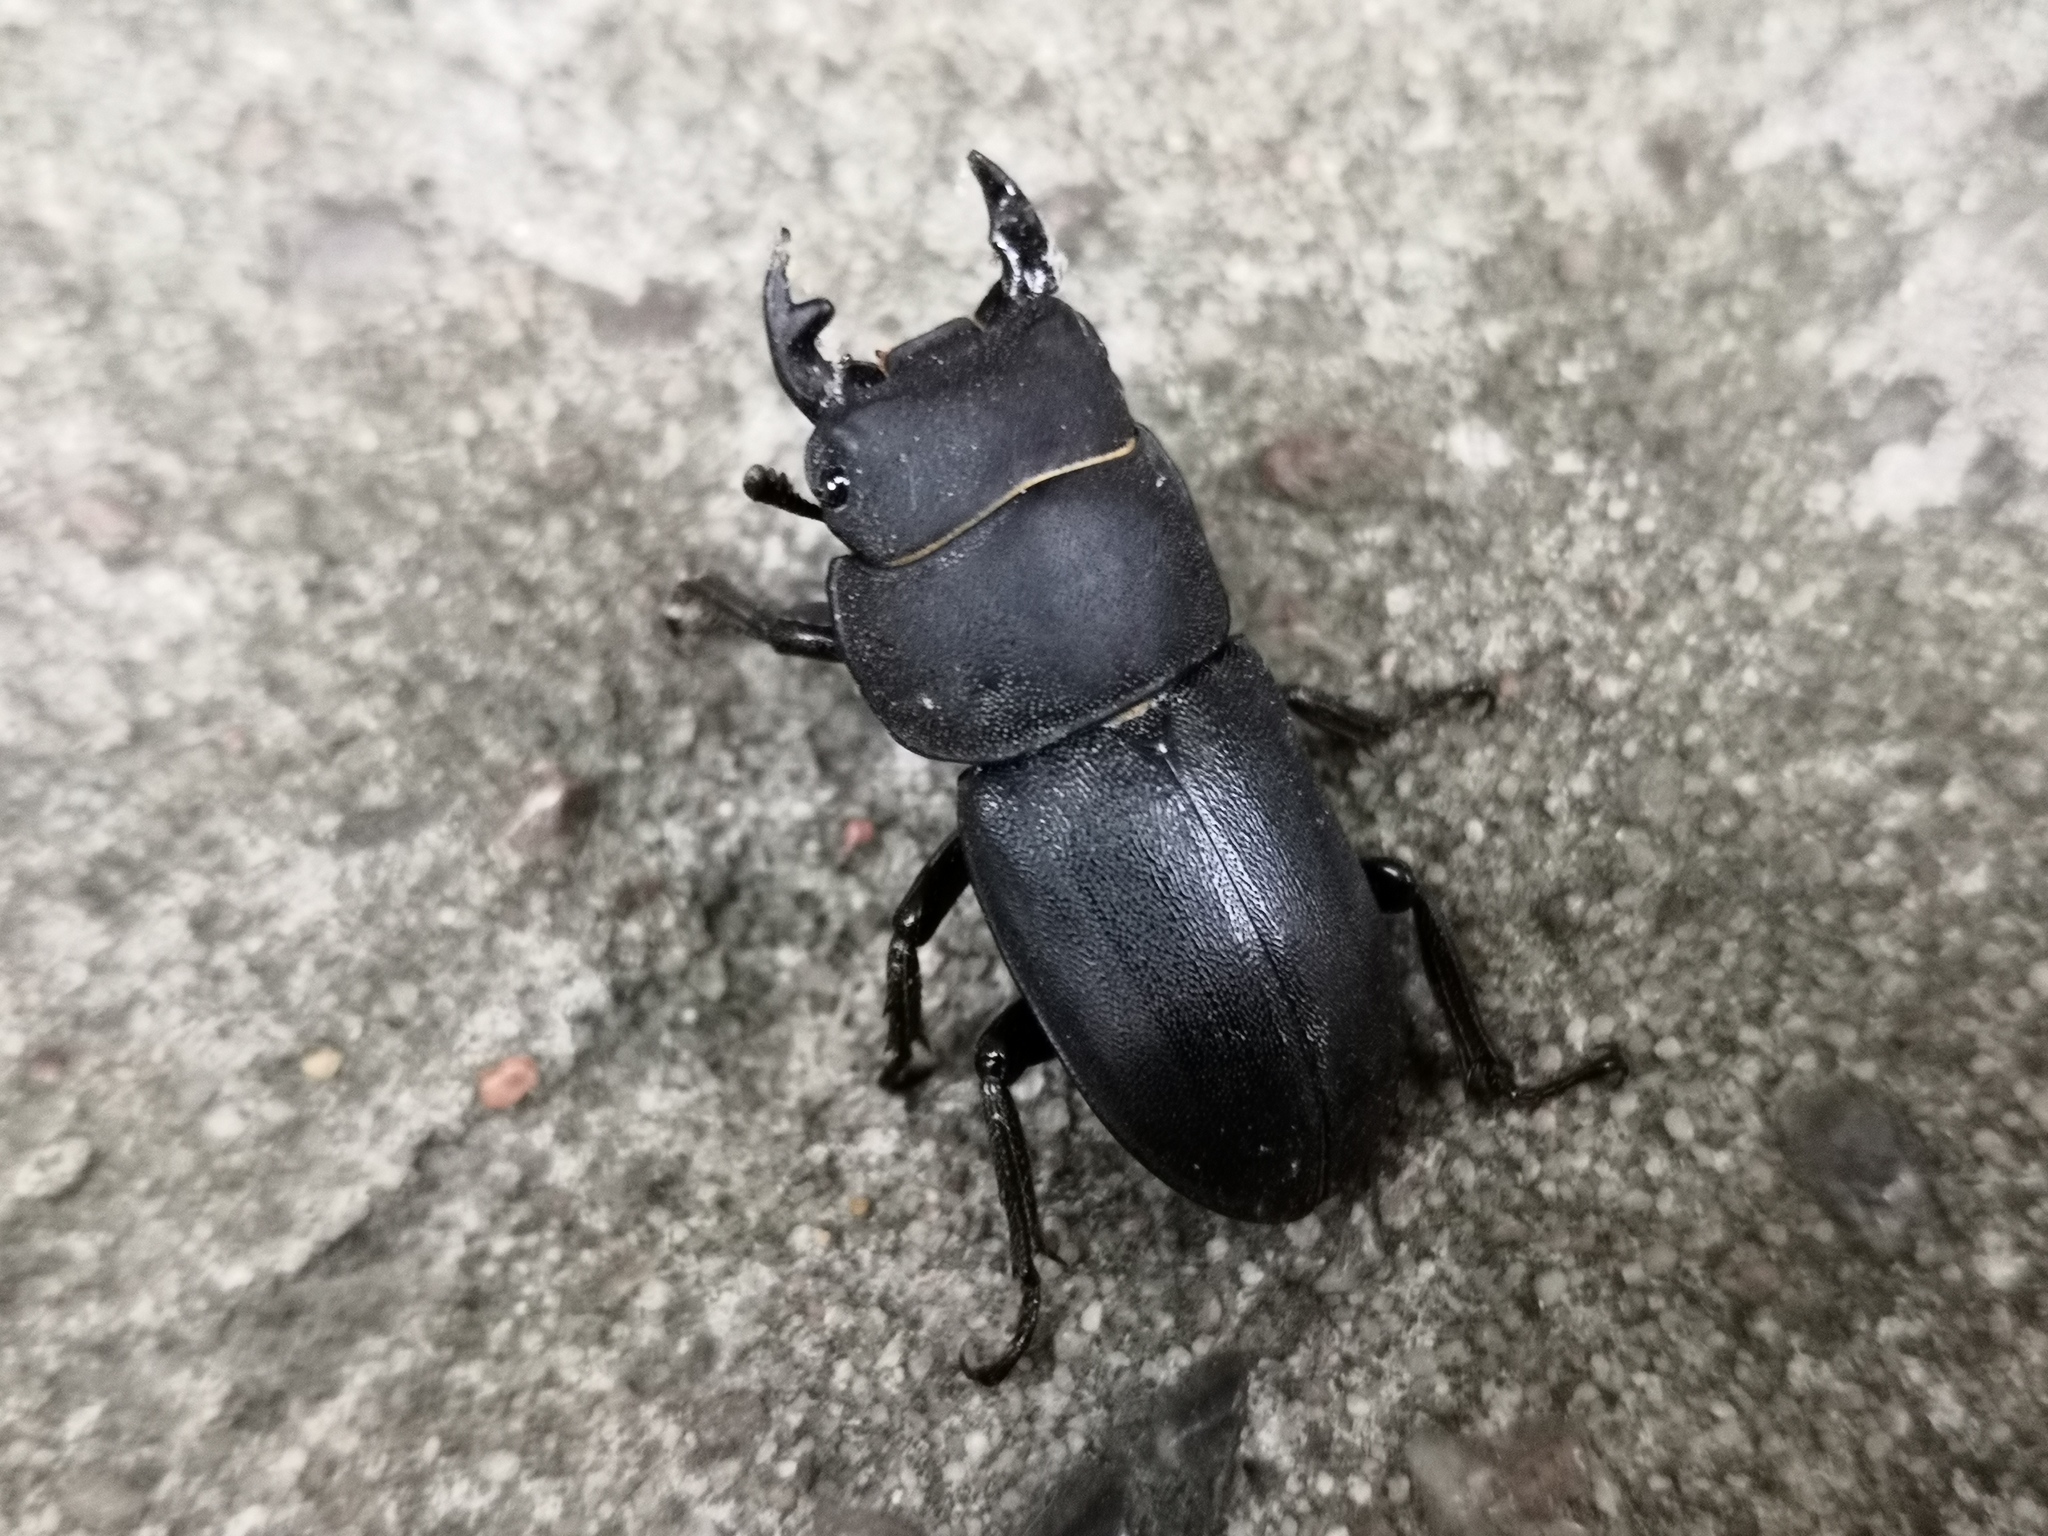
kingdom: Animalia
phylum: Arthropoda
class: Insecta
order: Coleoptera
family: Lucanidae
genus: Dorcus
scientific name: Dorcus parallelipipedus
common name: Lesser stag beetle
